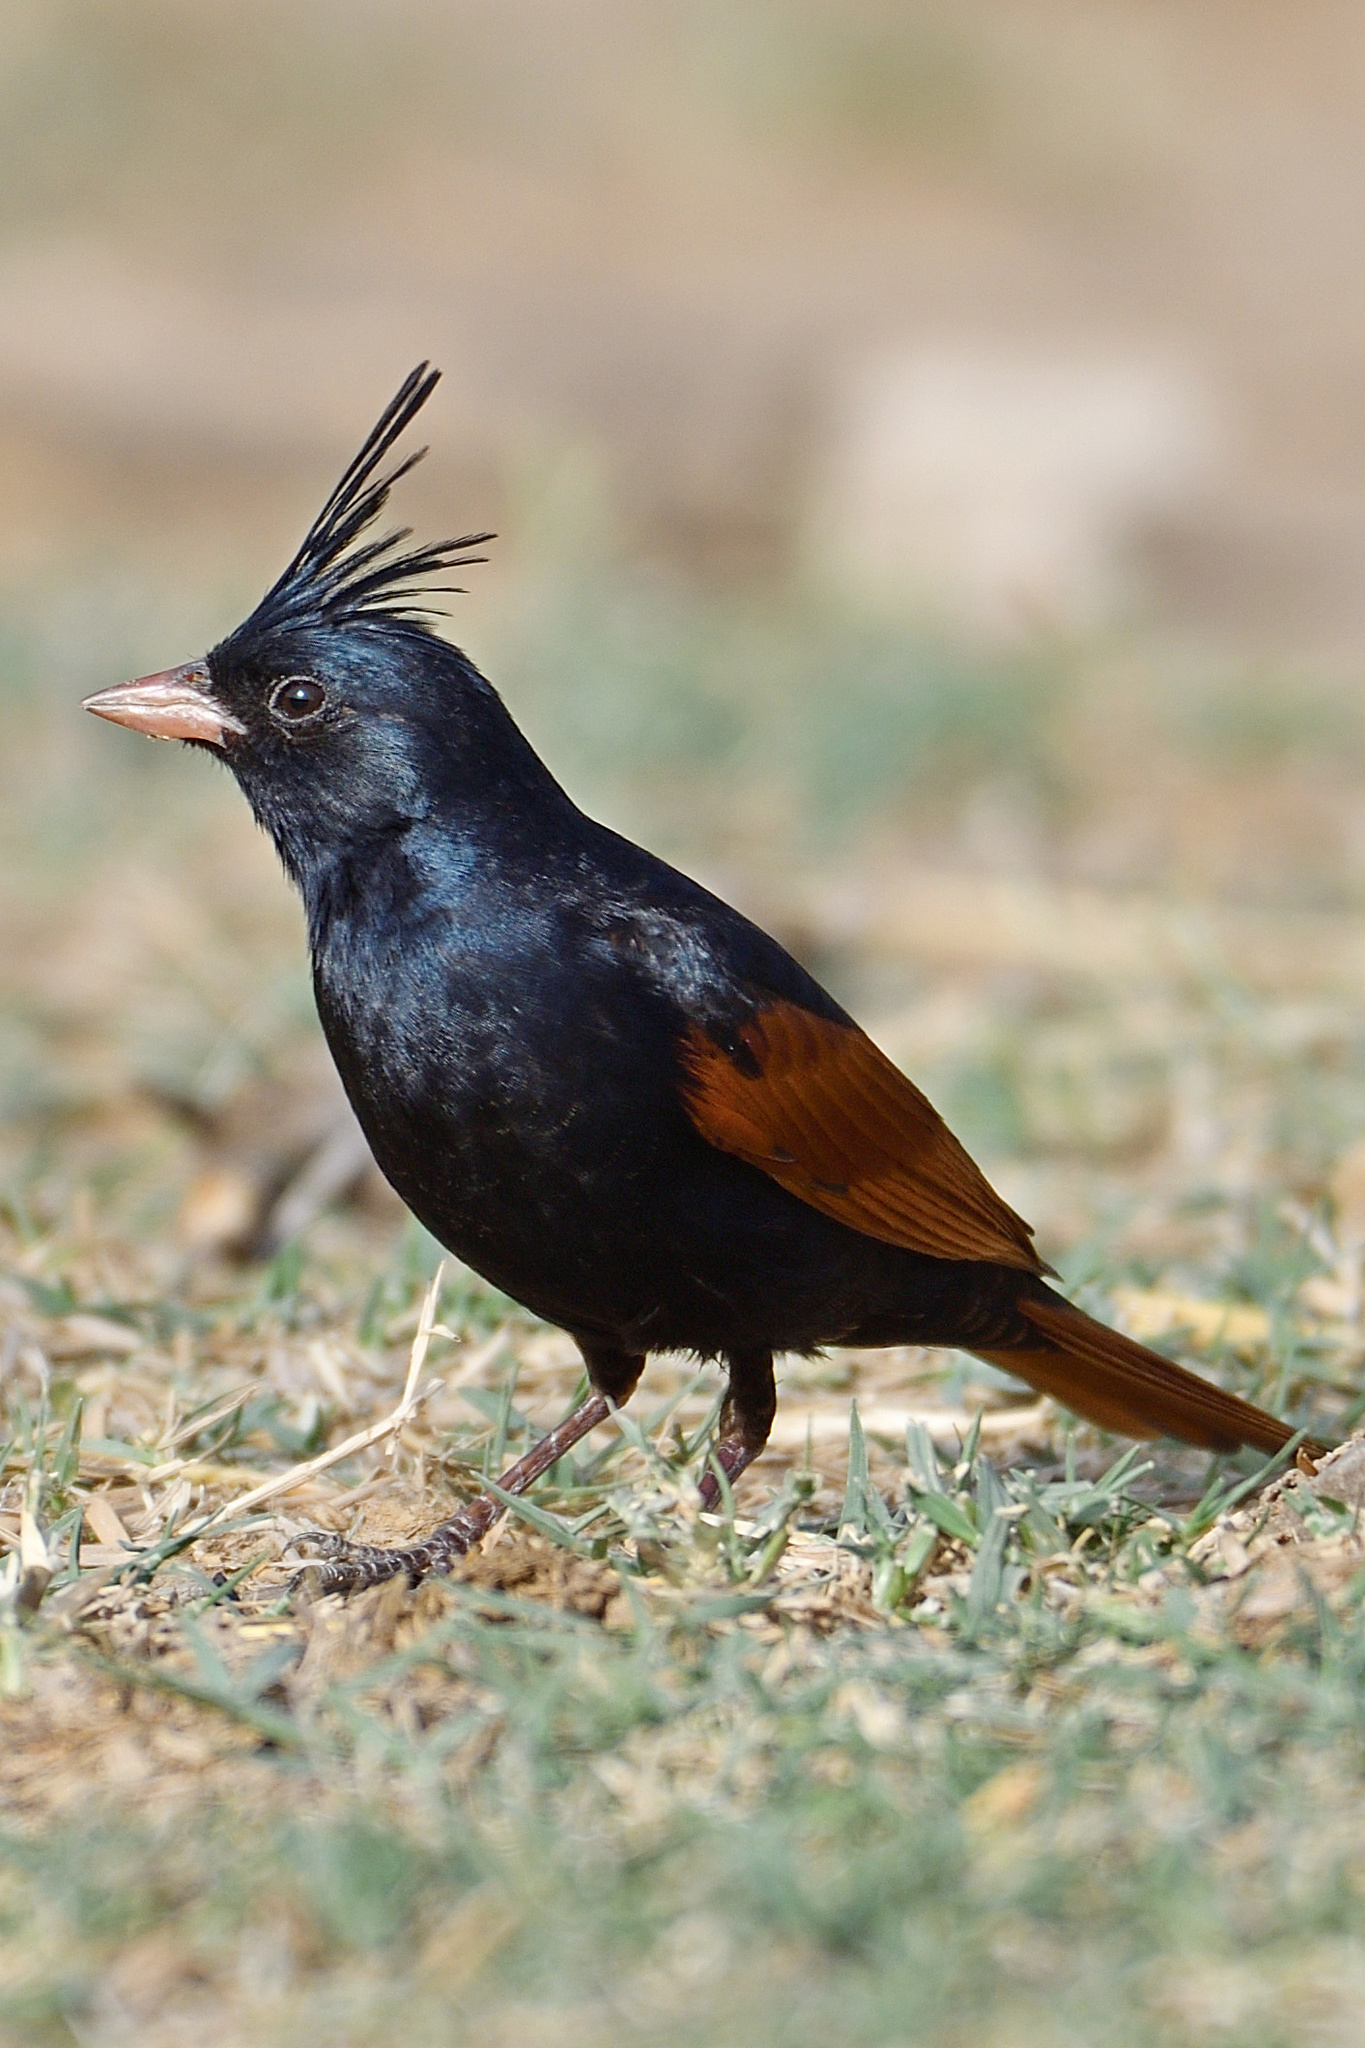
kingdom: Animalia
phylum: Chordata
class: Aves
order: Passeriformes
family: Emberizidae
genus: Emberiza
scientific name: Emberiza lathami
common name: Crested bunting
